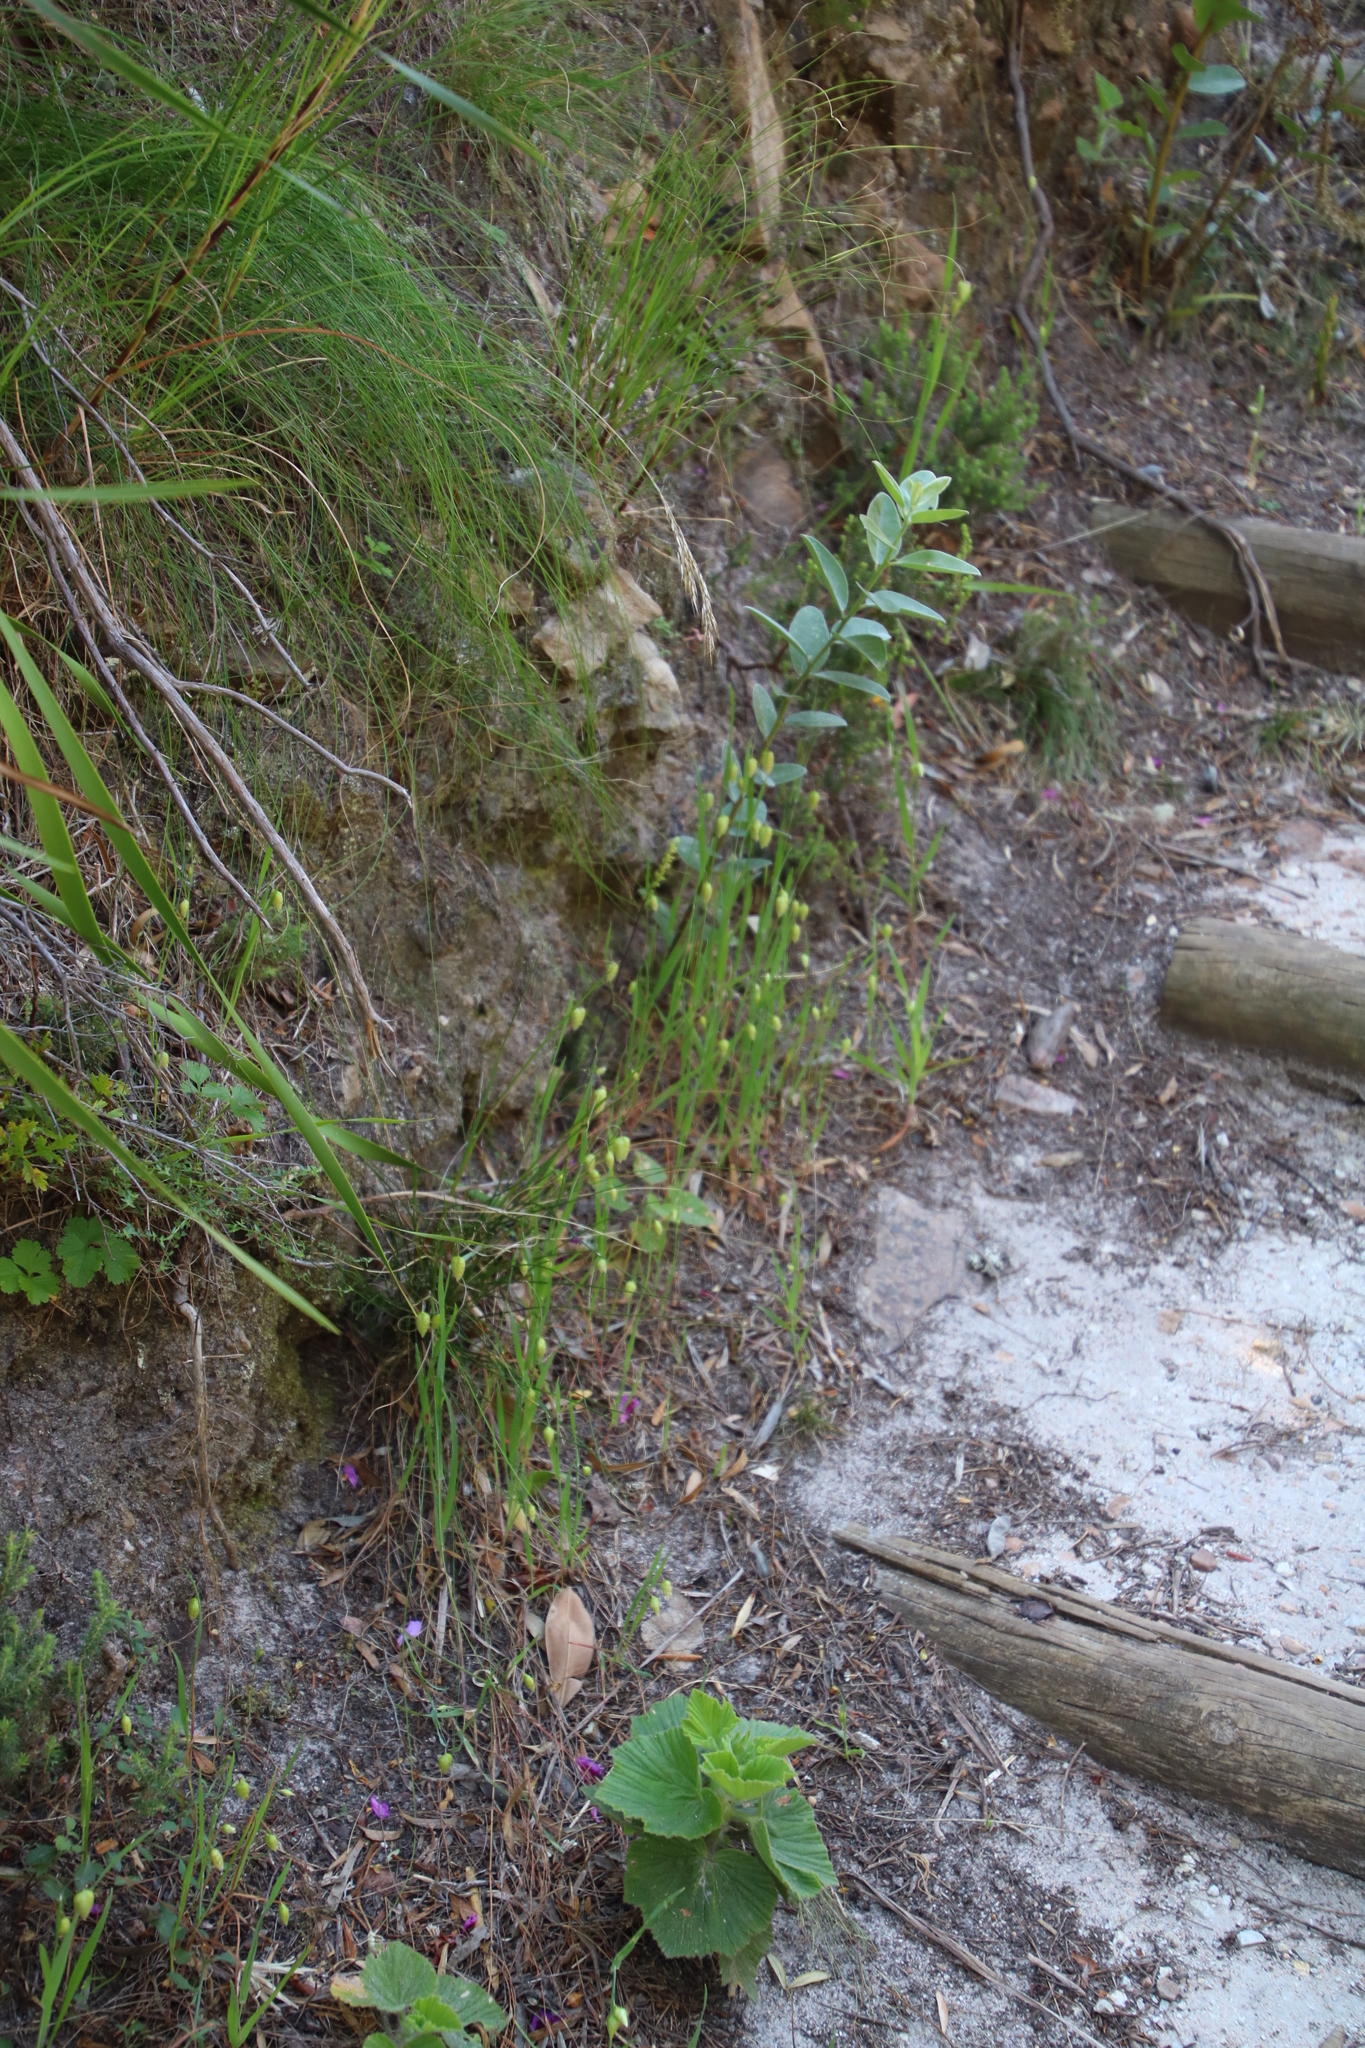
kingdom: Plantae
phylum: Tracheophyta
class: Liliopsida
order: Poales
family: Poaceae
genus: Briza
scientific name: Briza maxima
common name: Big quakinggrass
